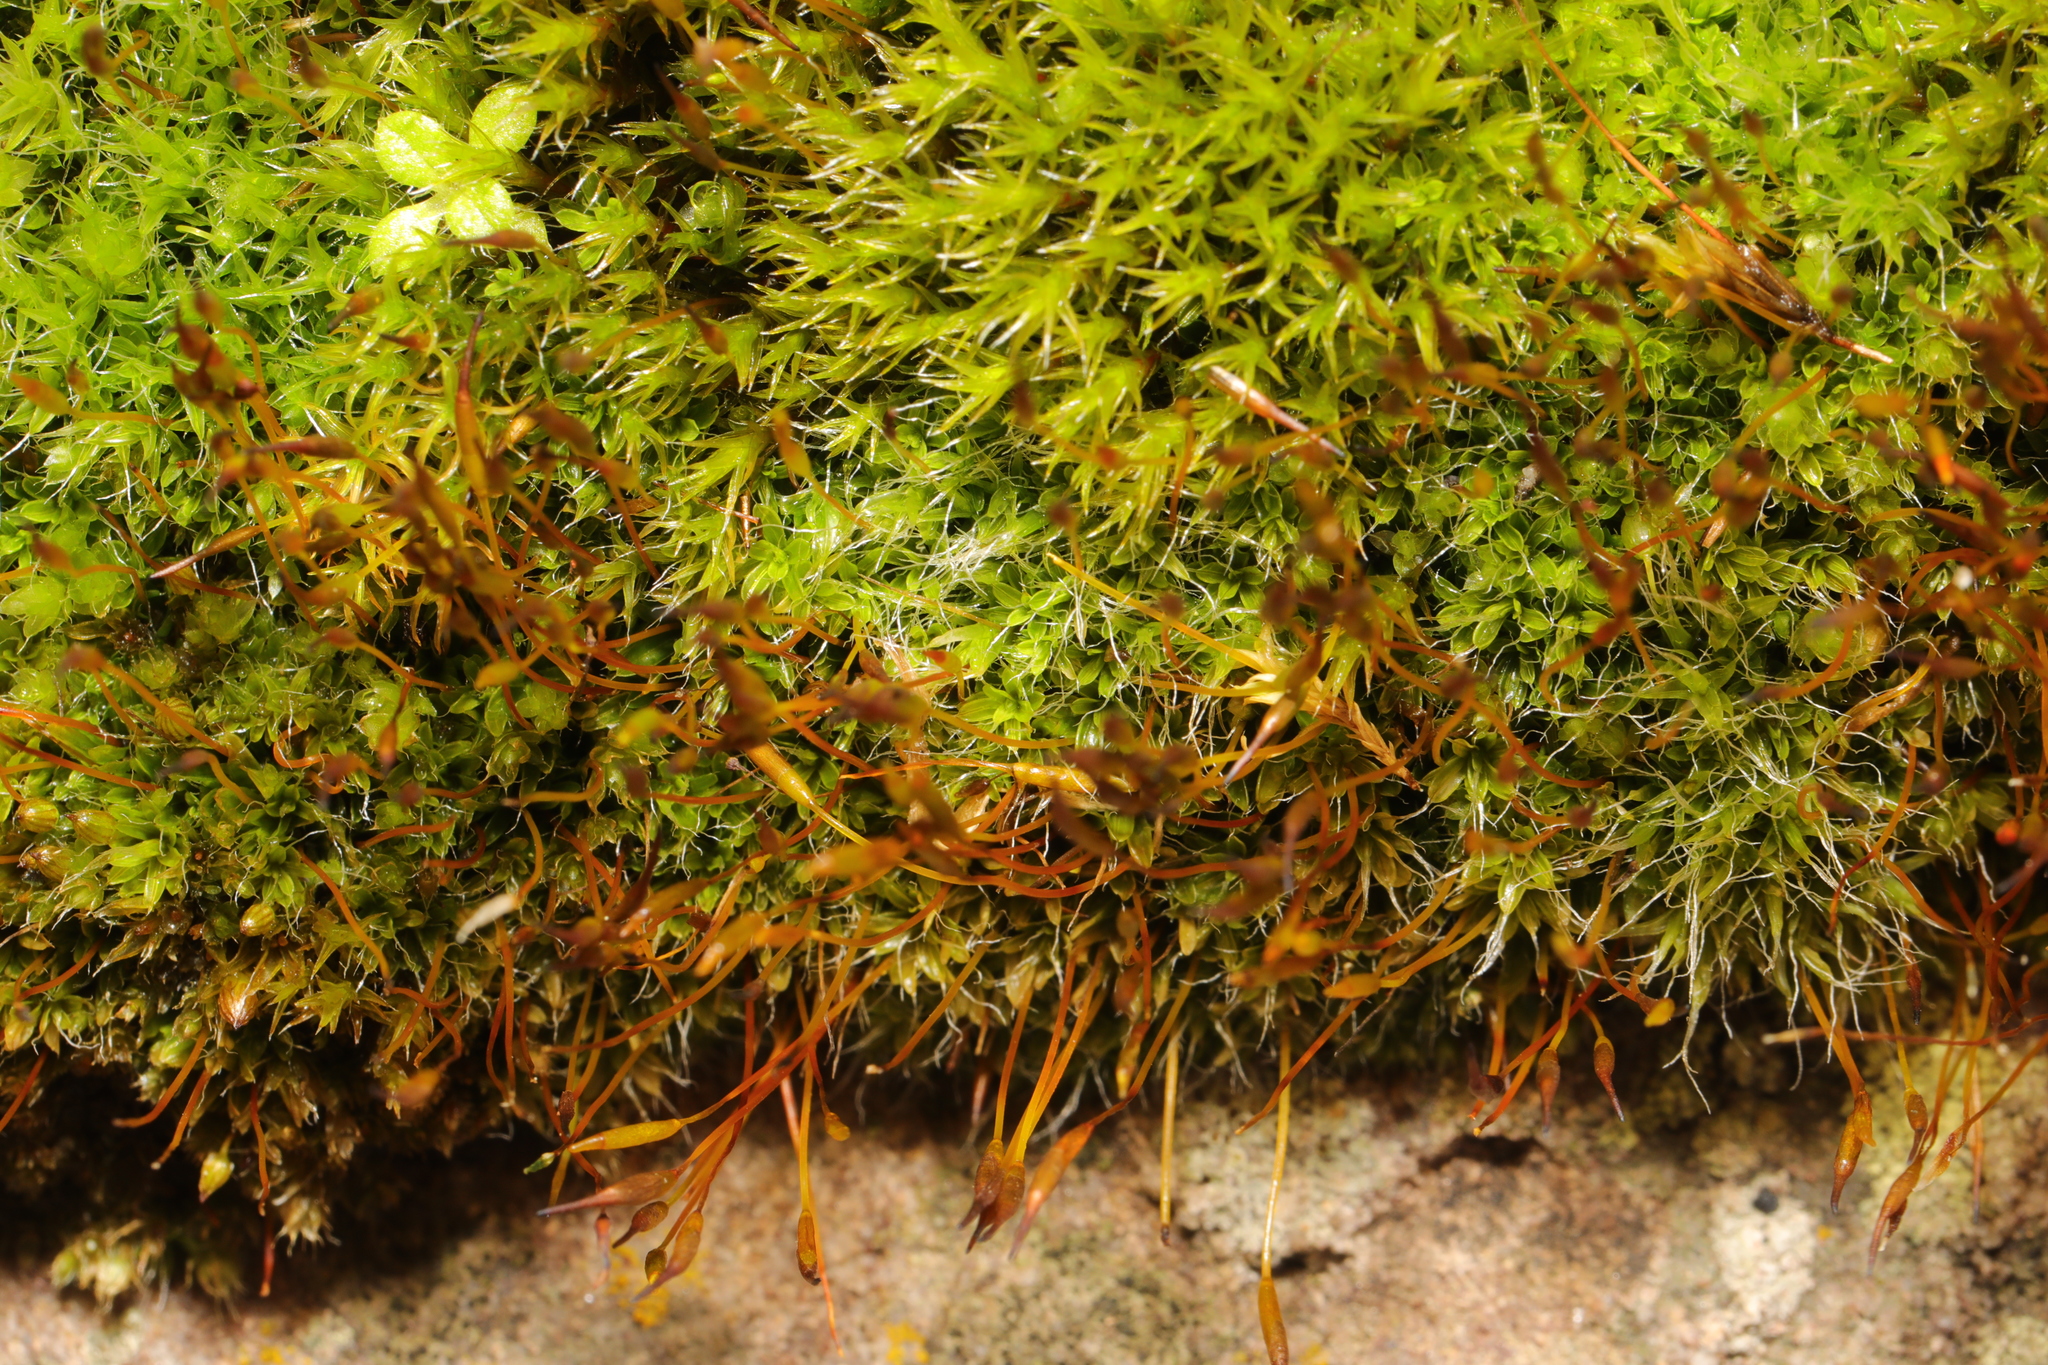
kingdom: Plantae
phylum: Bryophyta
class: Bryopsida
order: Pottiales
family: Pottiaceae
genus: Tortula
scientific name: Tortula muralis
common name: Wall screw-moss
